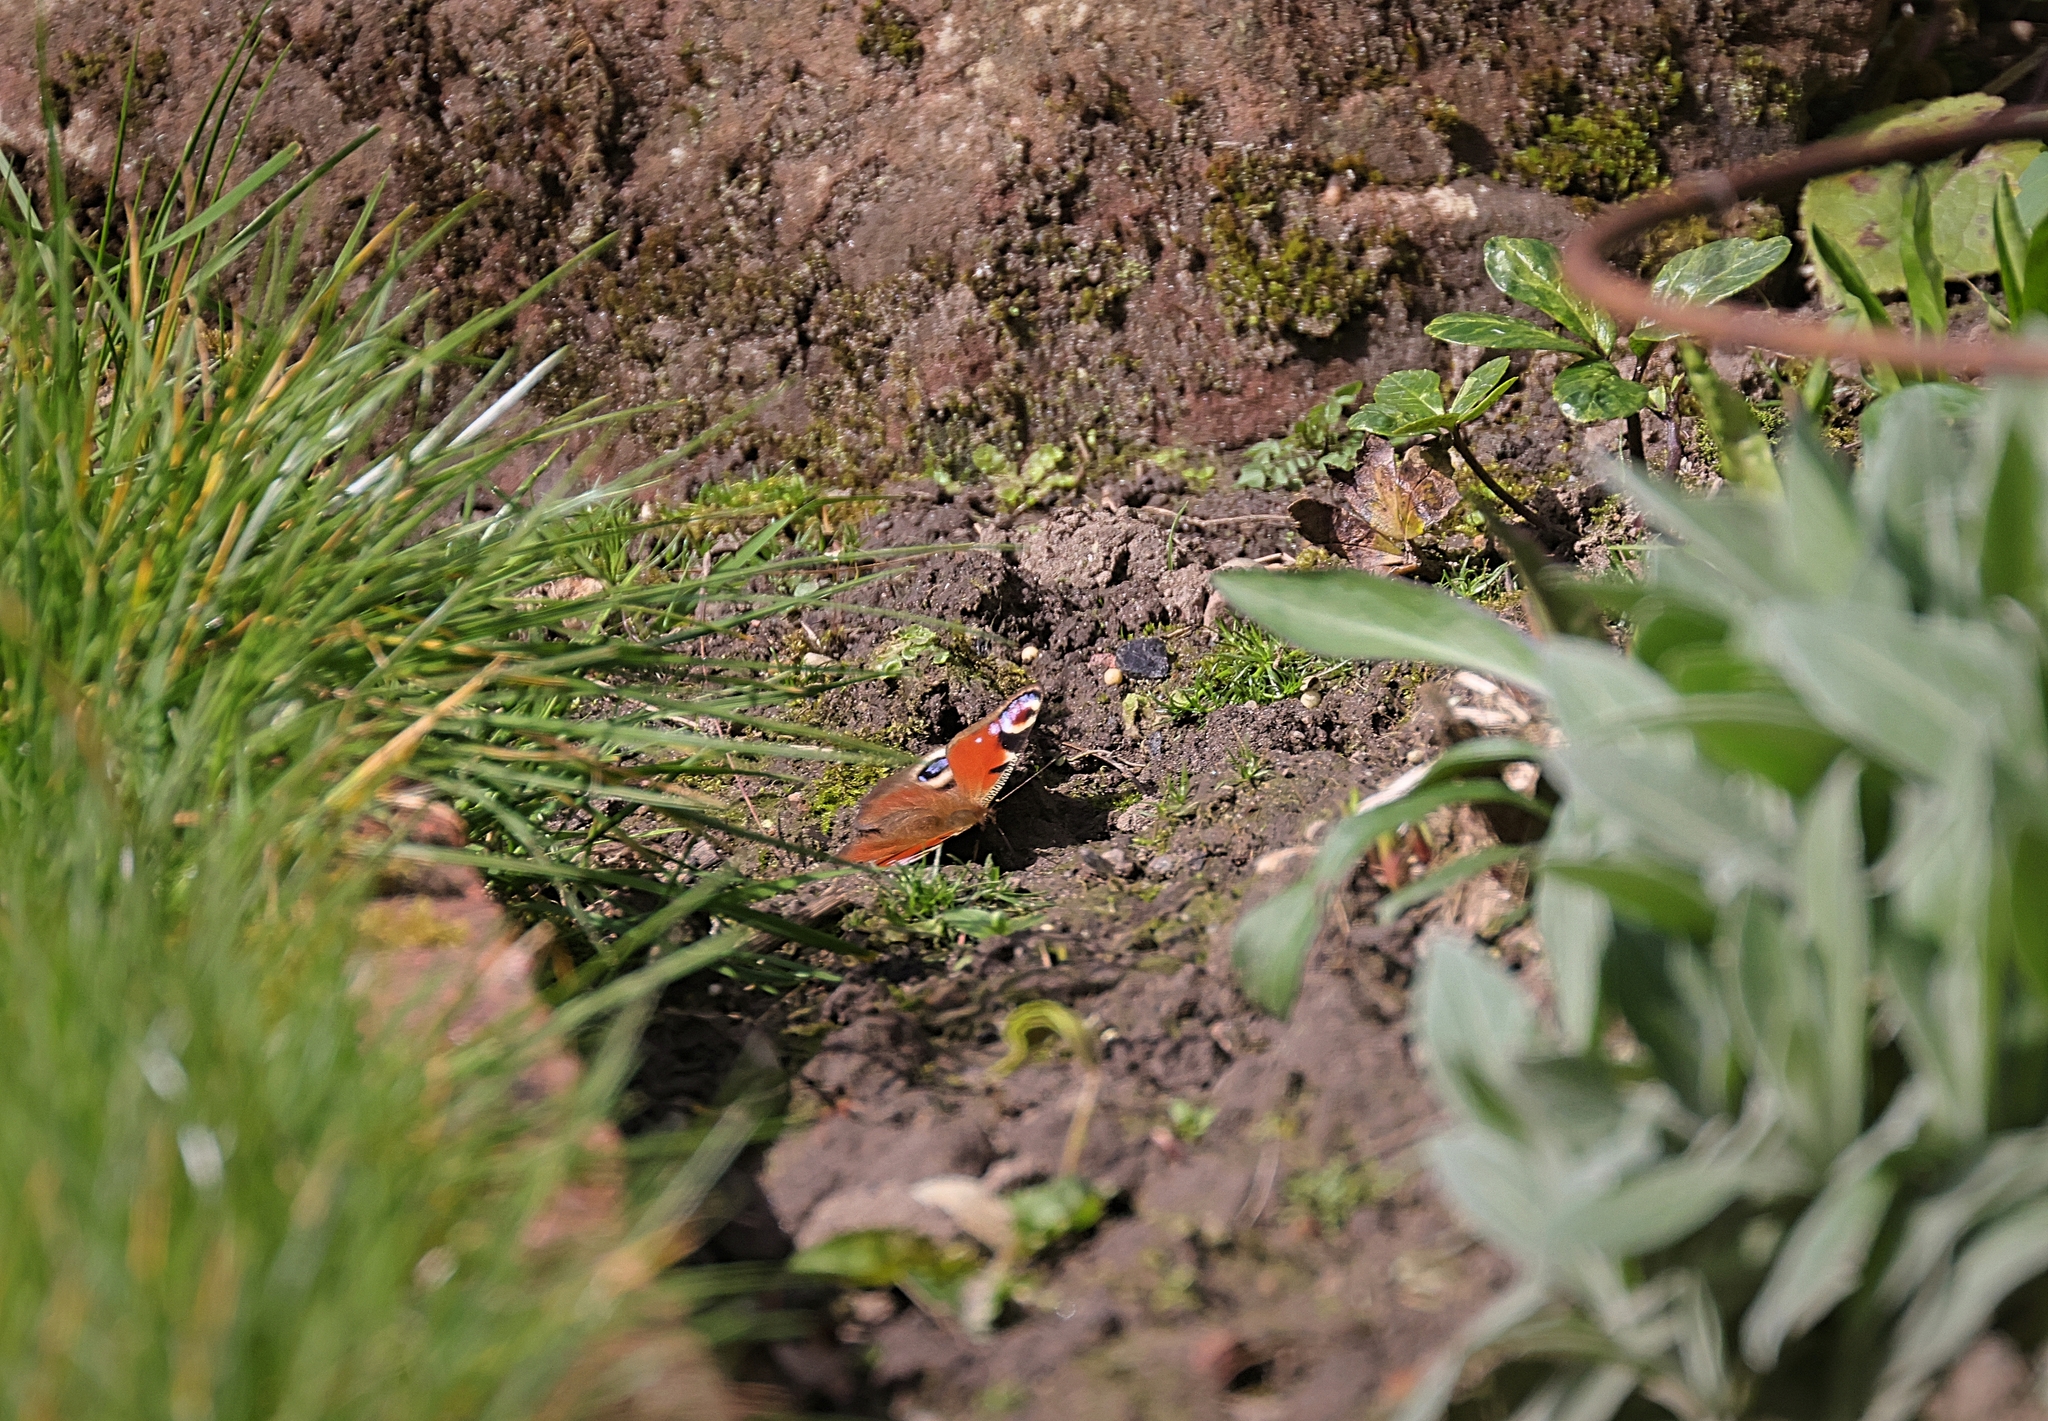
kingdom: Animalia
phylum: Arthropoda
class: Insecta
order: Lepidoptera
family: Nymphalidae
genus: Aglais
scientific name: Aglais io
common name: Peacock
